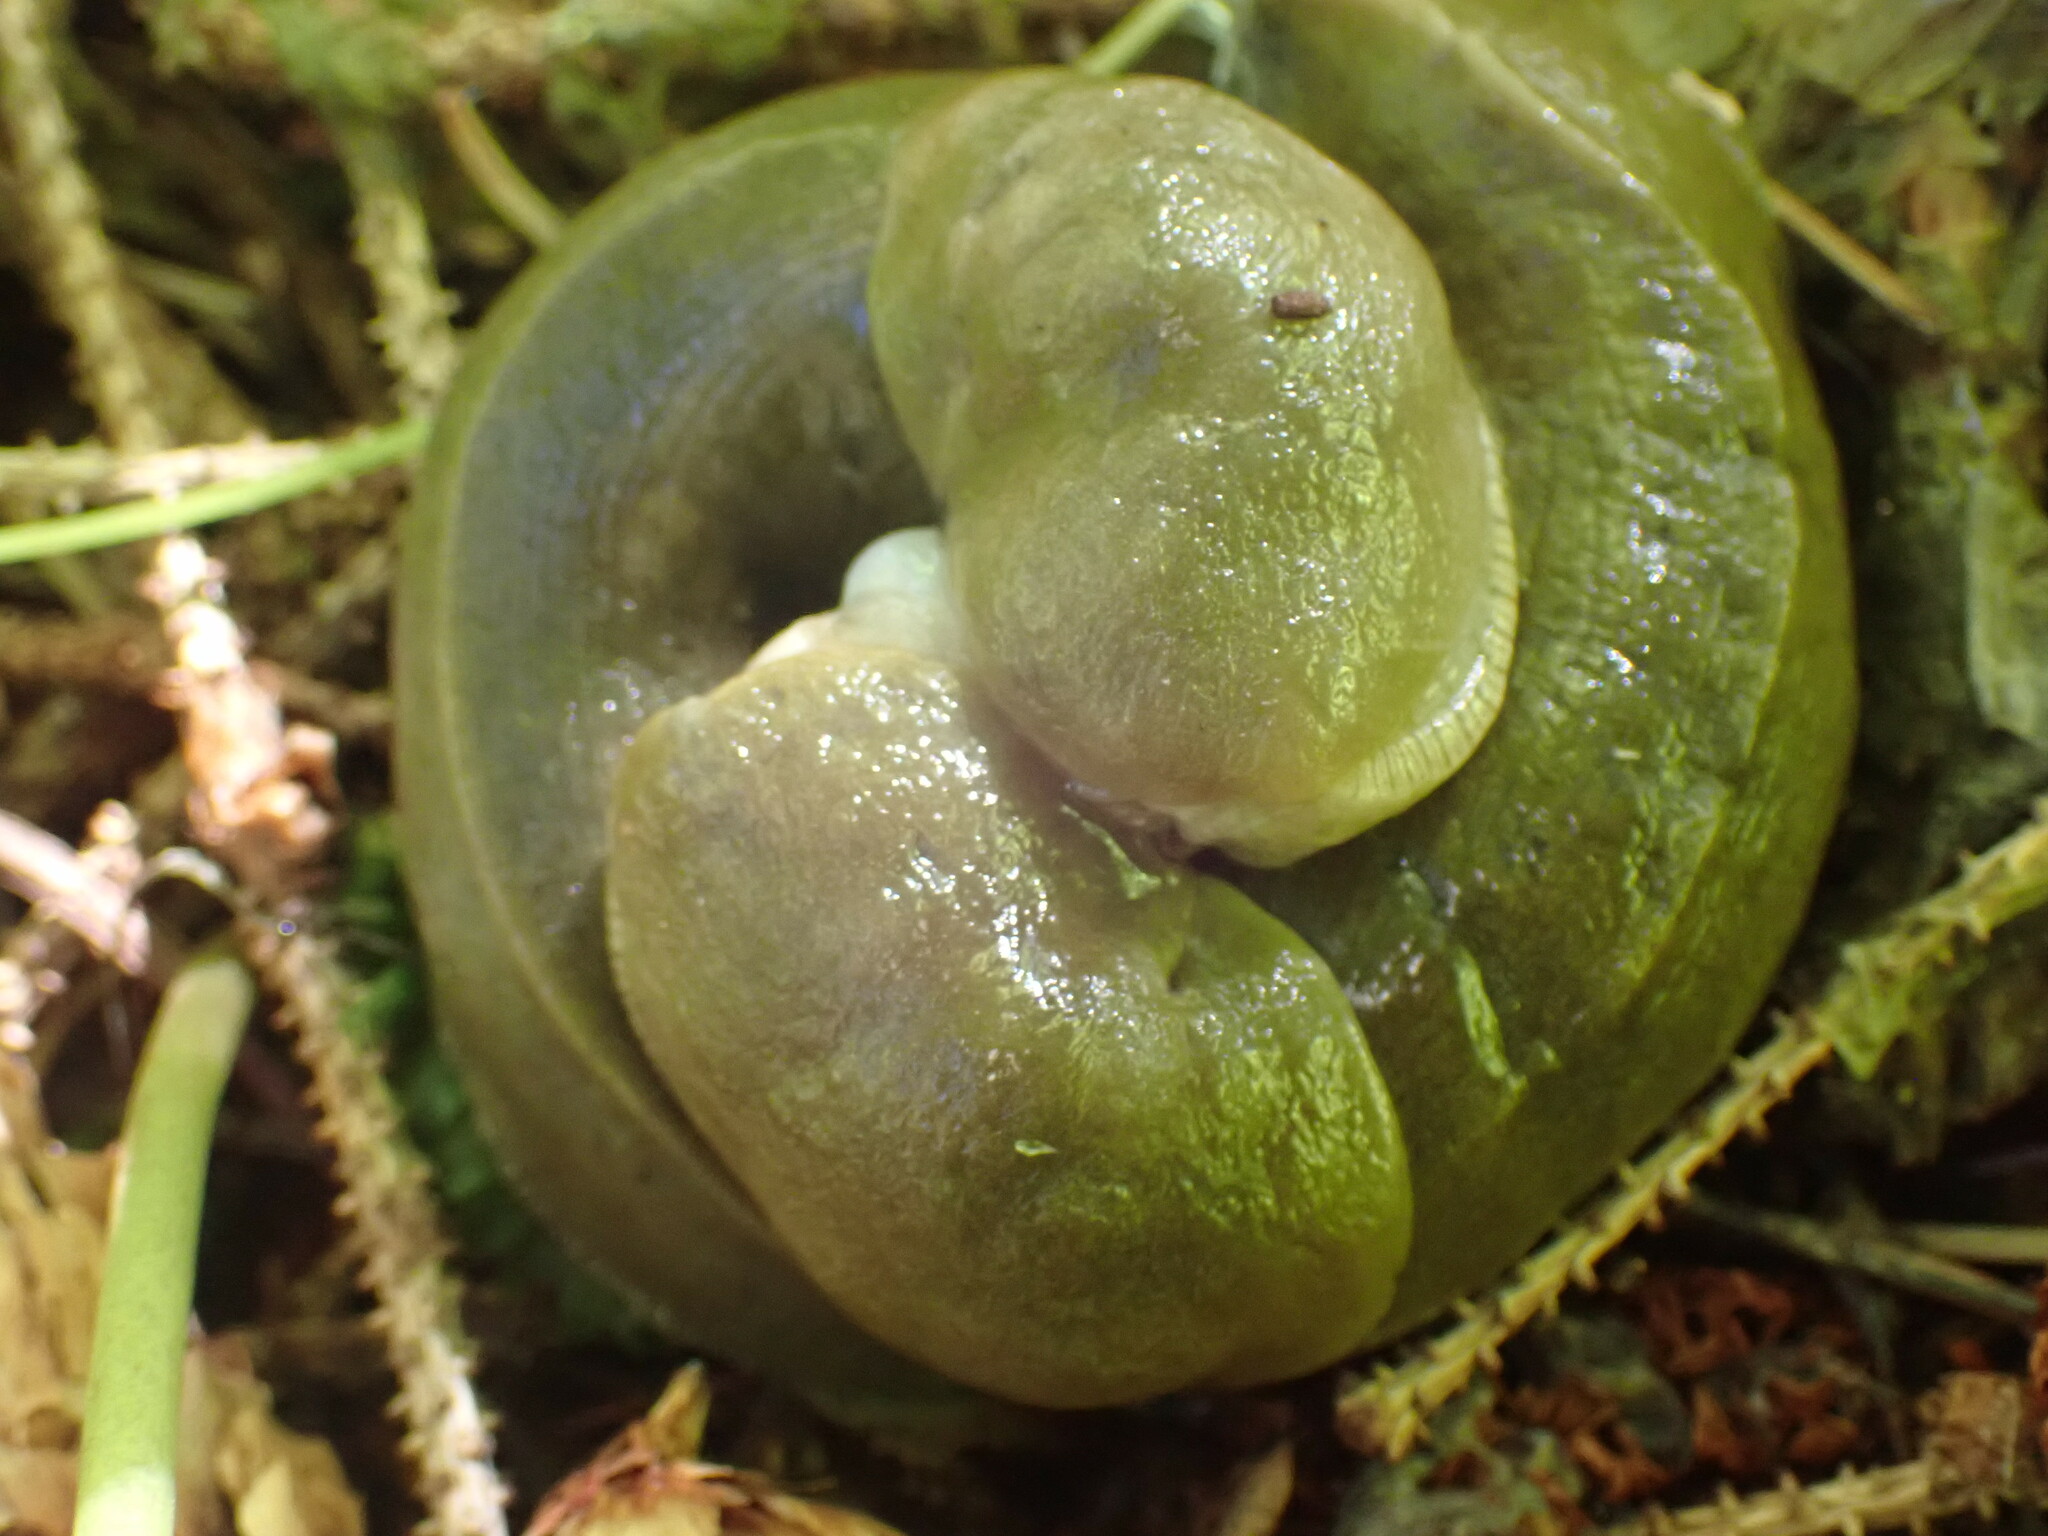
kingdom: Animalia
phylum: Mollusca
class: Gastropoda
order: Stylommatophora
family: Ariolimacidae
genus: Ariolimax
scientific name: Ariolimax columbianus
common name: Pacific banana slug
